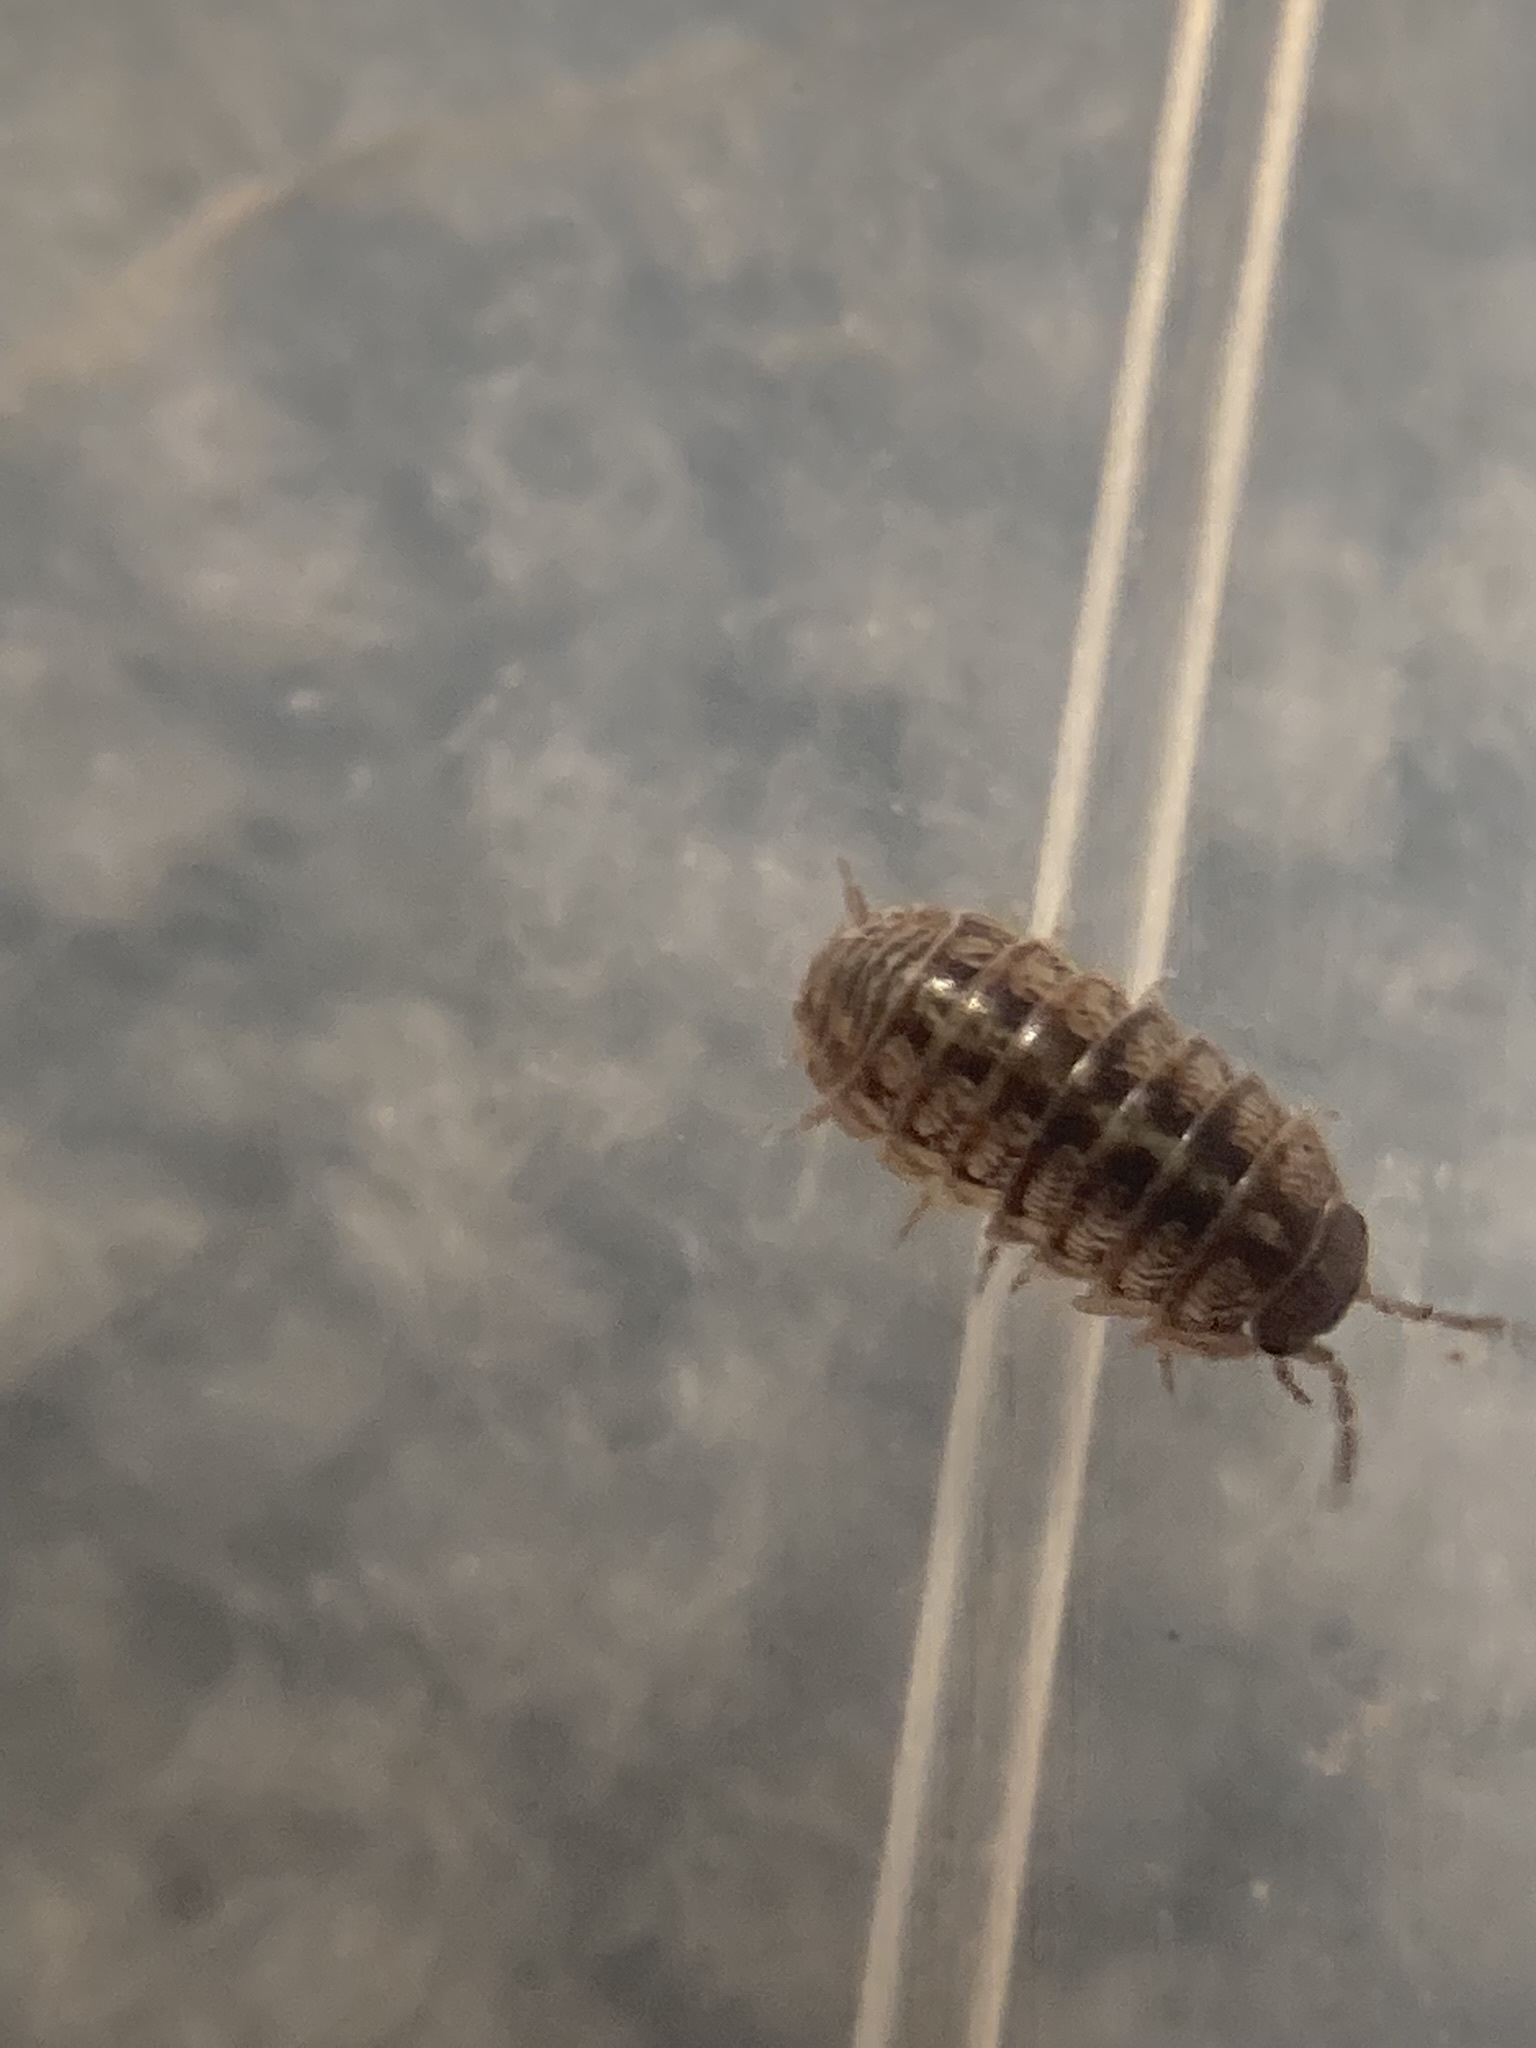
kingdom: Animalia
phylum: Arthropoda
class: Malacostraca
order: Isopoda
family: Armadillidiidae
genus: Armadillidium
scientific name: Armadillidium vulgare
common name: Common pill woodlouse
